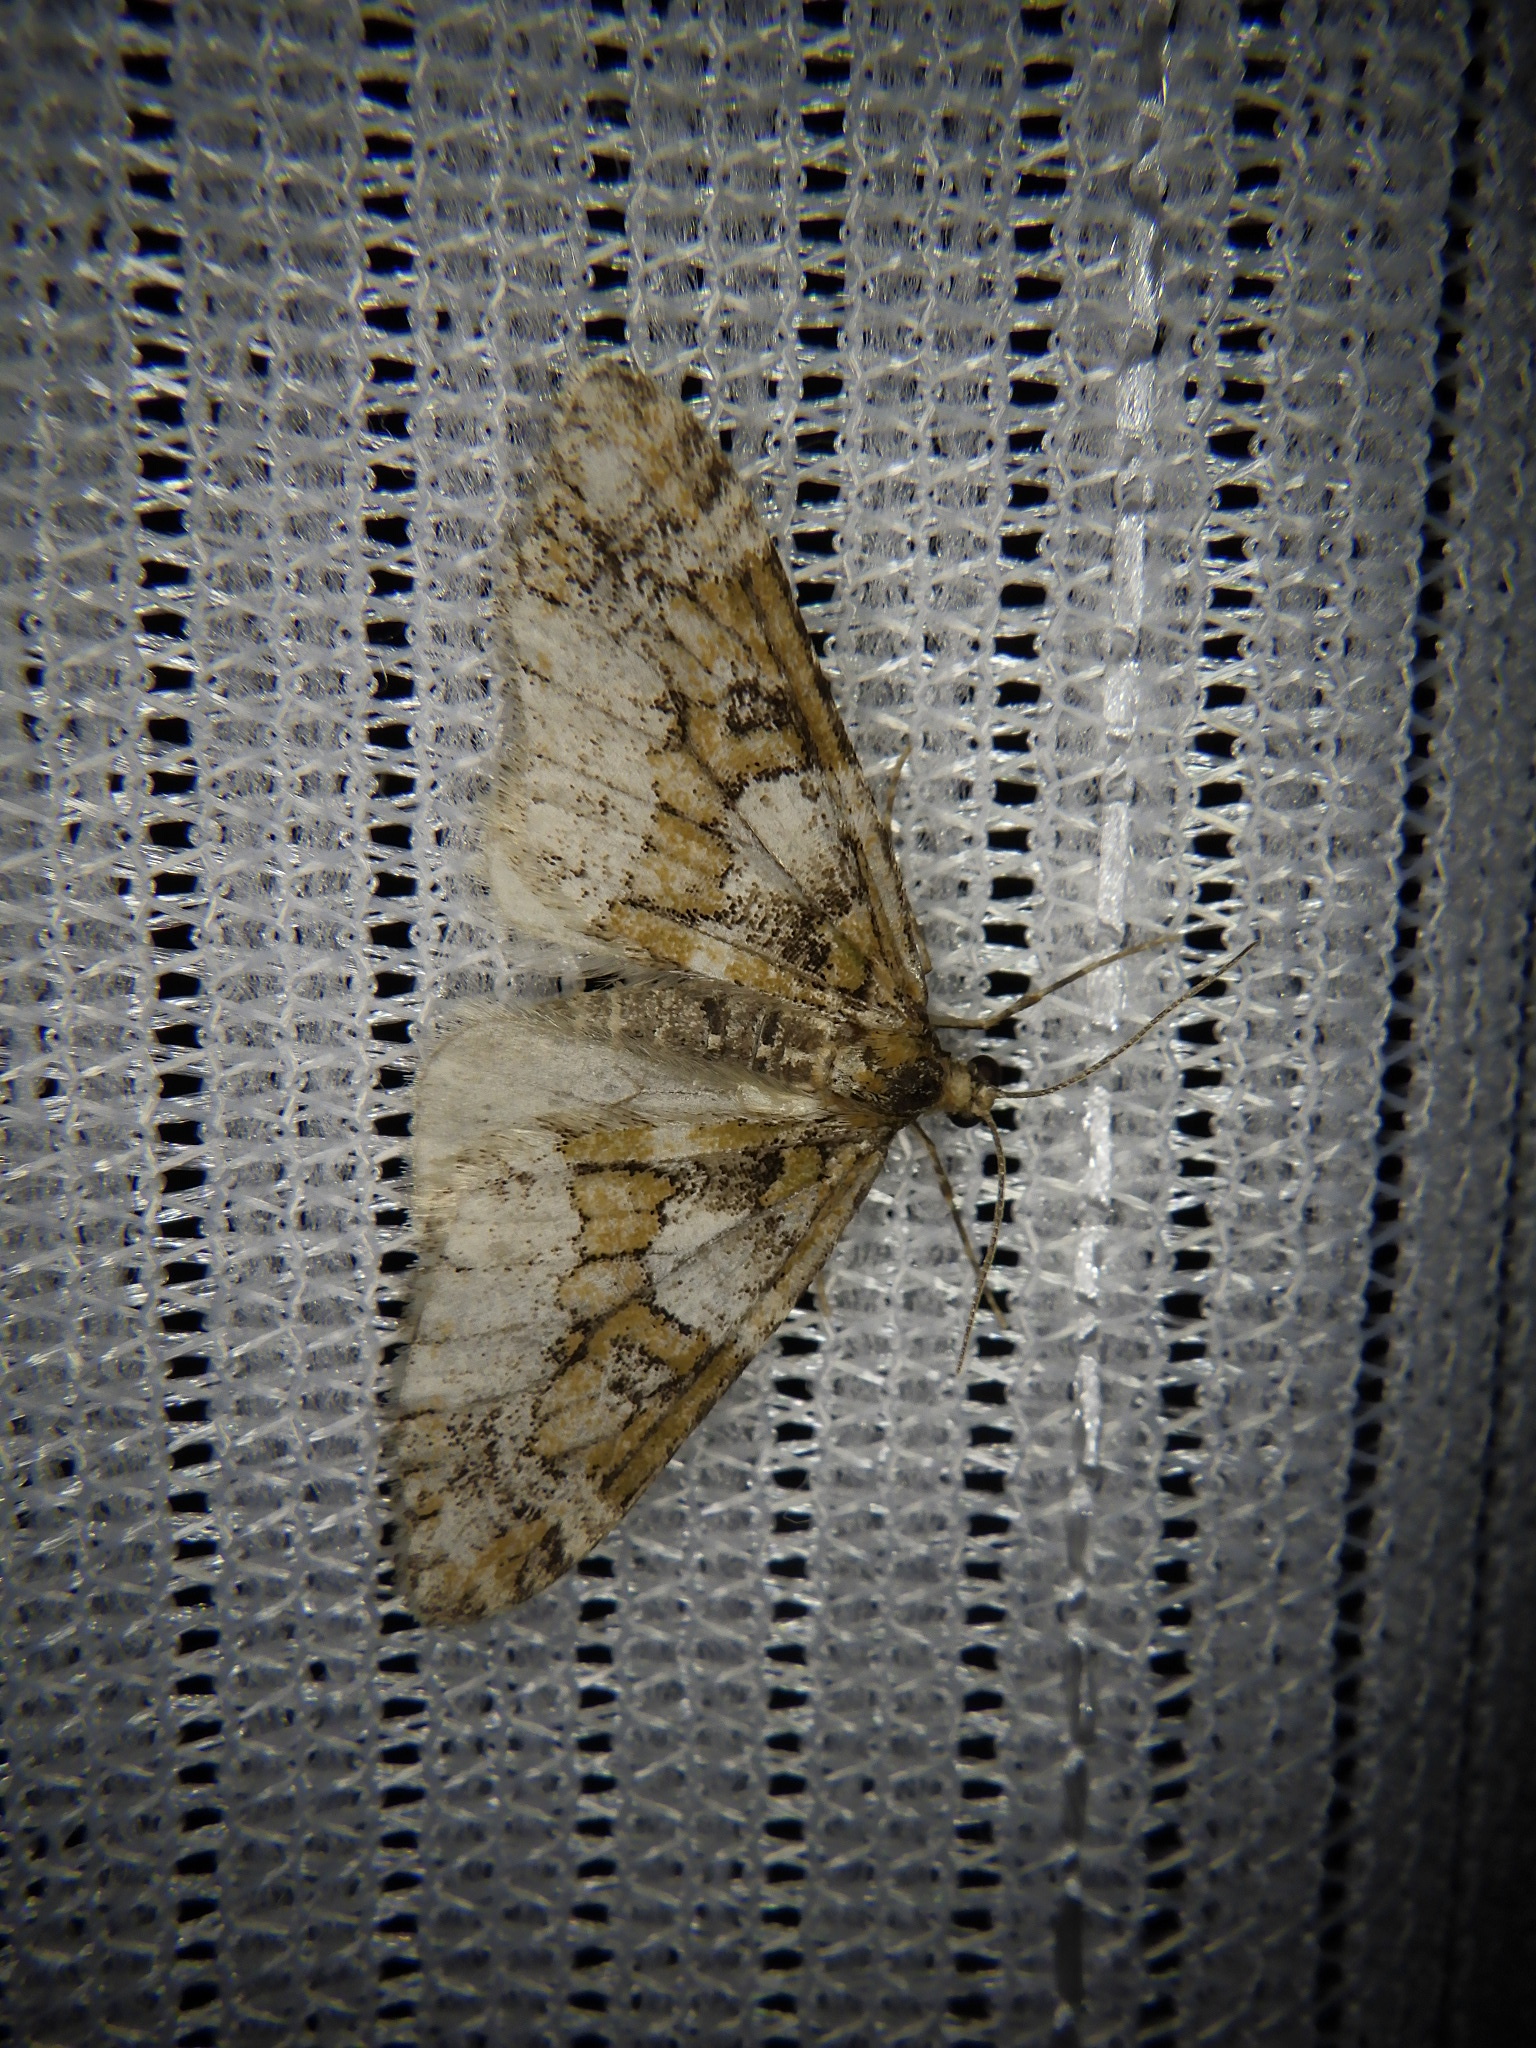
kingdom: Animalia
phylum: Arthropoda
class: Insecta
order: Lepidoptera
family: Geometridae
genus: Esakiopteryx
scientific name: Esakiopteryx volitans
